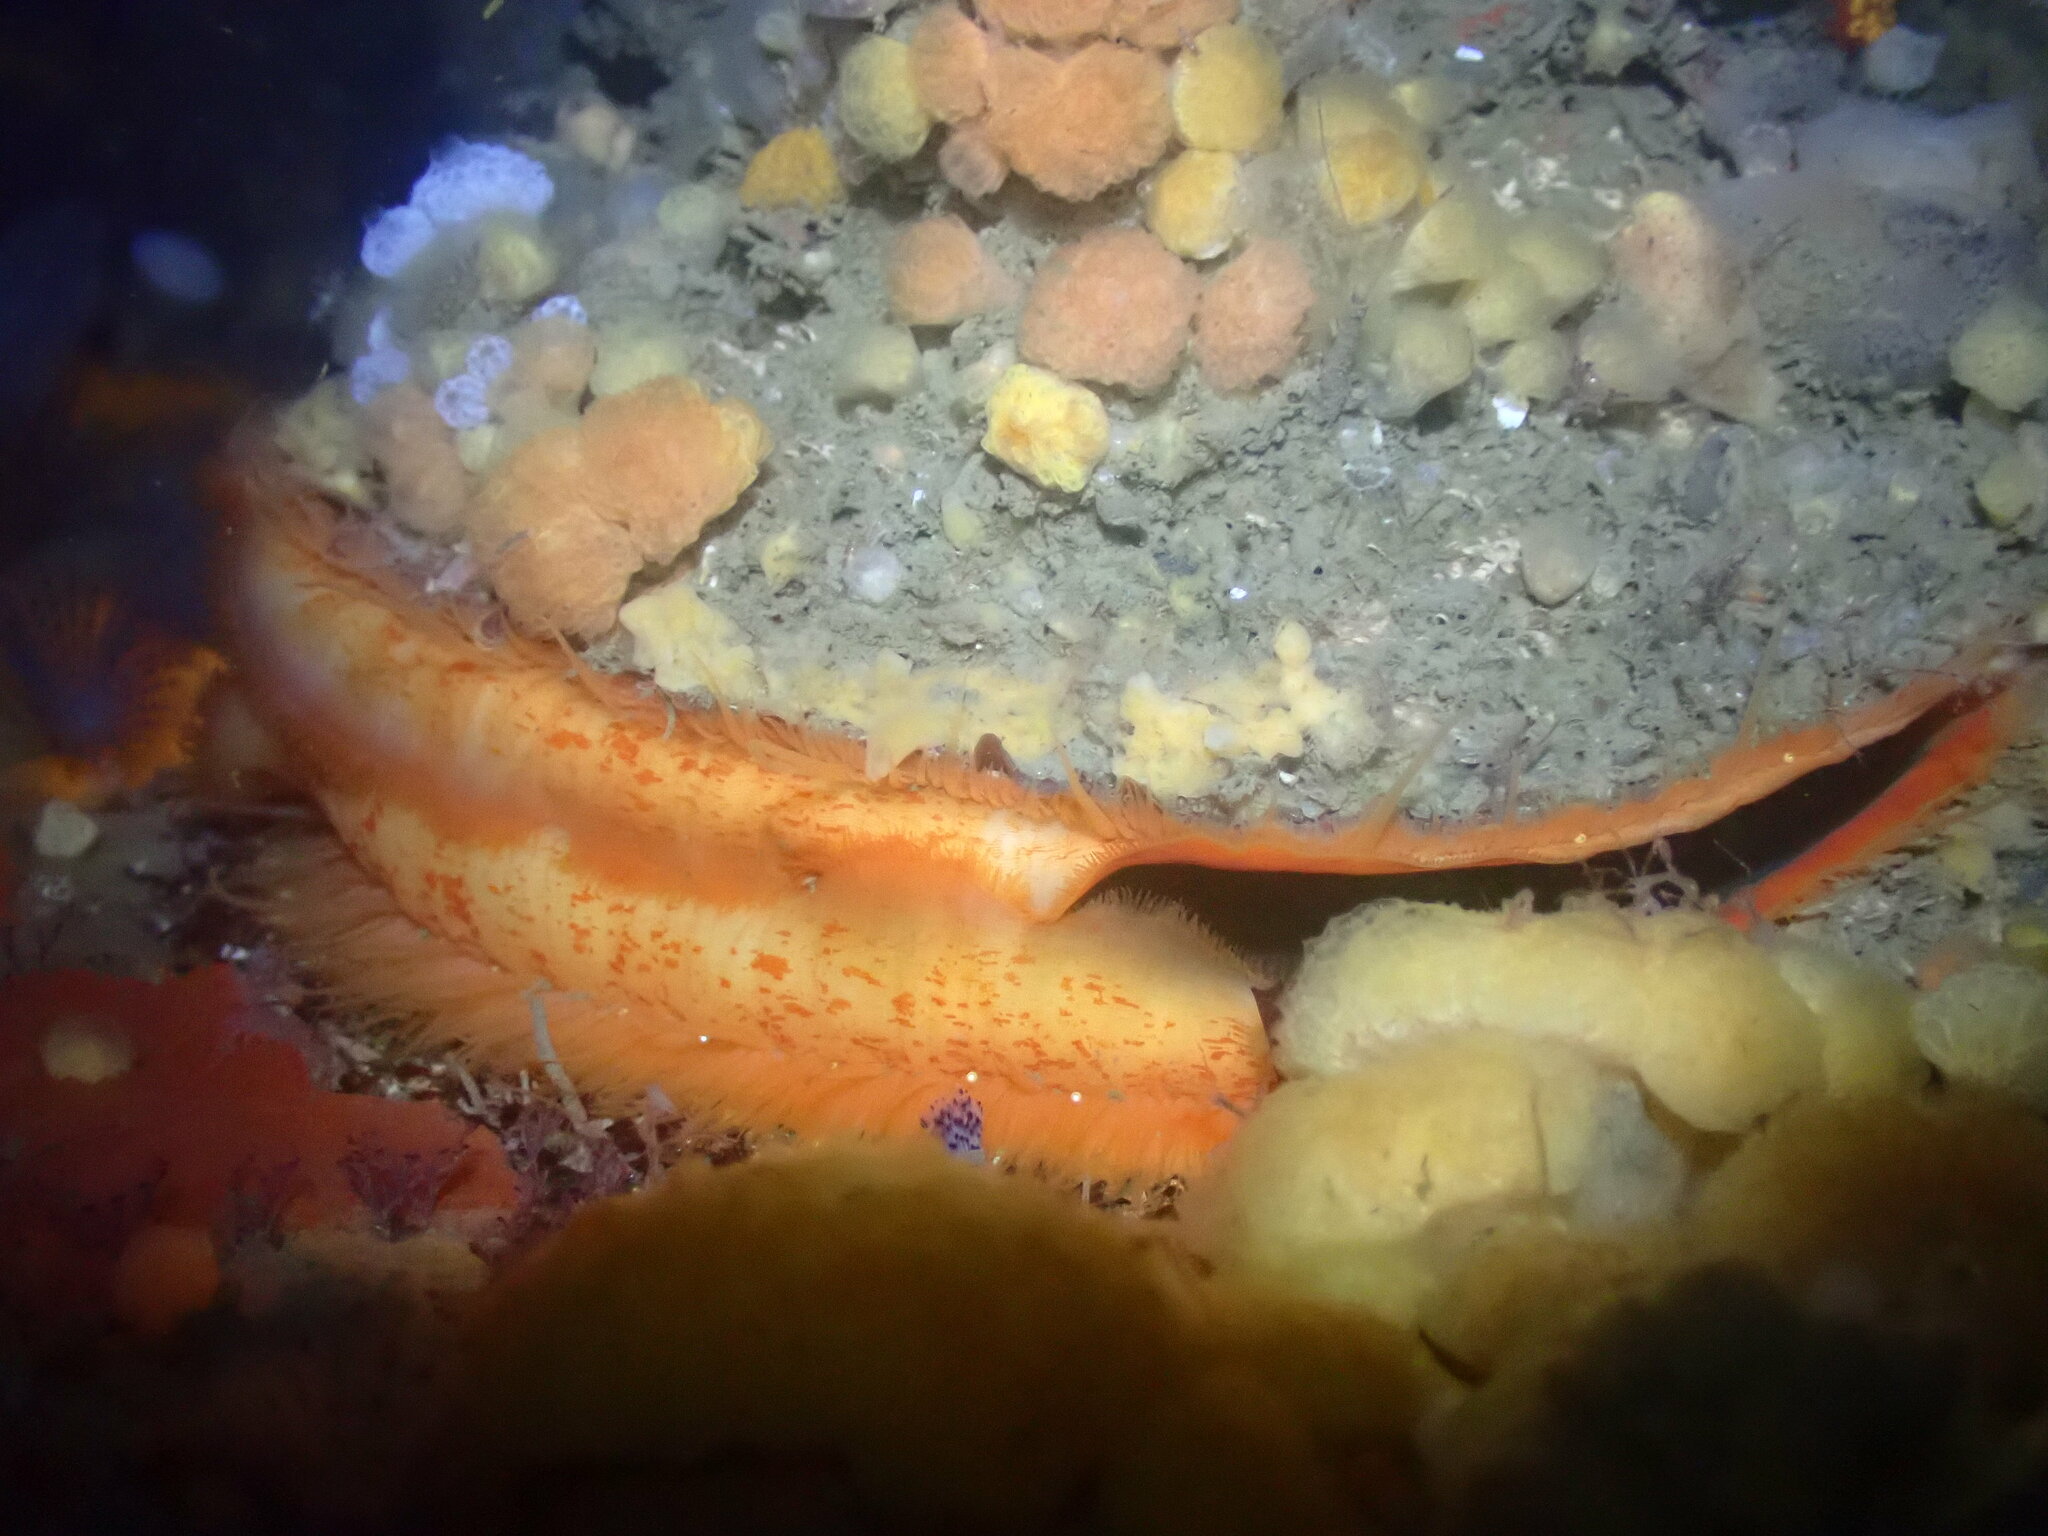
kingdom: Animalia
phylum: Mollusca
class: Bivalvia
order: Pectinida
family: Pectinidae
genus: Crassadoma
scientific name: Crassadoma gigantea
